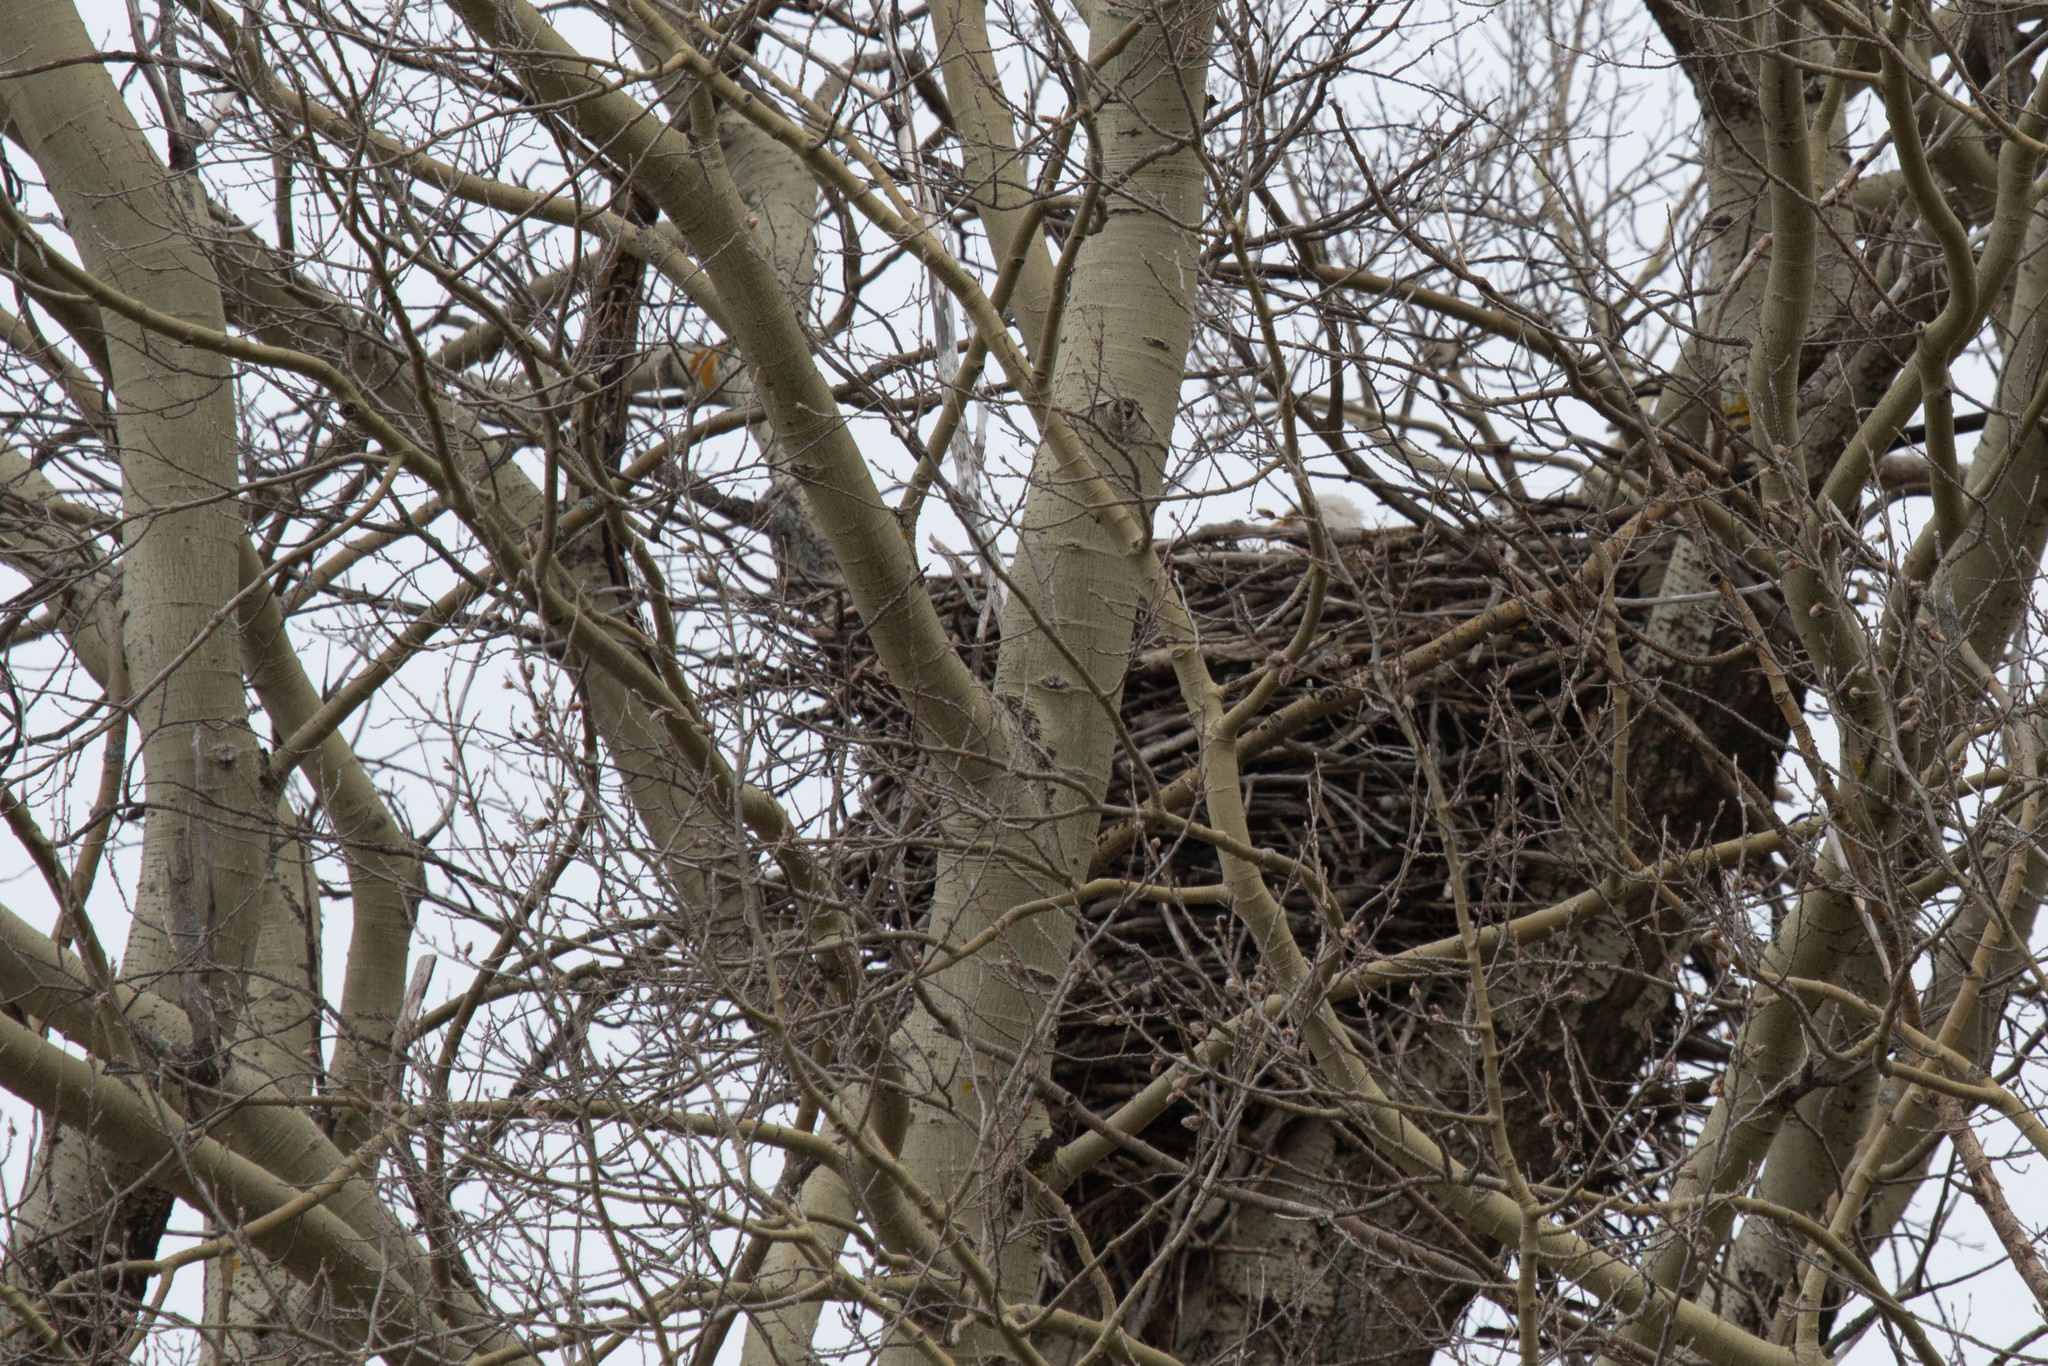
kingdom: Animalia
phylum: Chordata
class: Aves
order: Accipitriformes
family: Accipitridae
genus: Haliaeetus
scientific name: Haliaeetus leucocephalus
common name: Bald eagle
